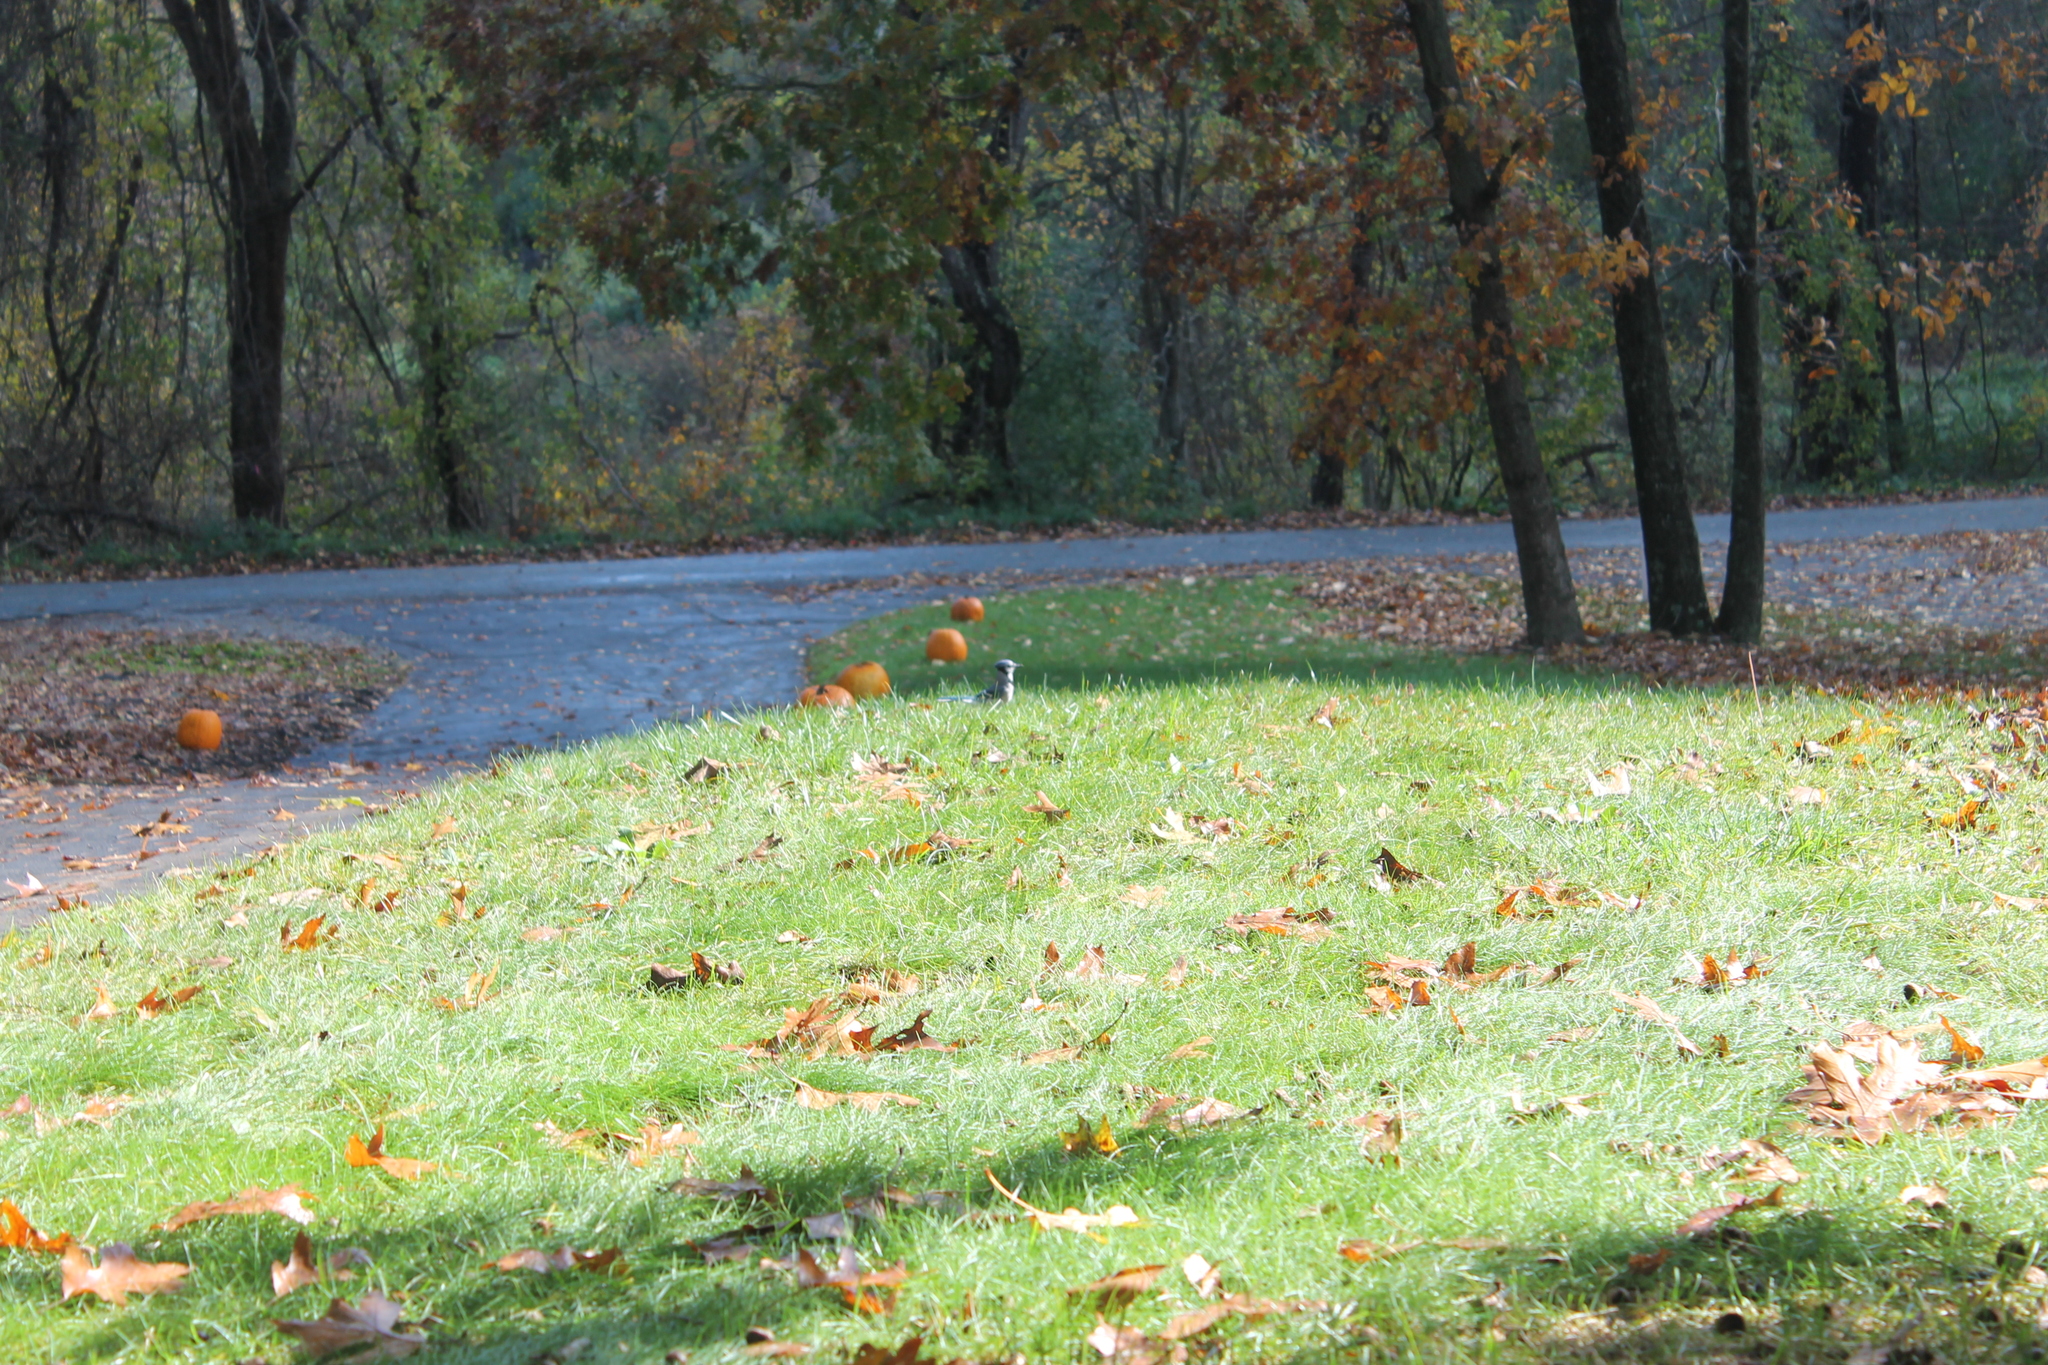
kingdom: Animalia
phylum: Chordata
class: Aves
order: Passeriformes
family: Corvidae
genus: Cyanocitta
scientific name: Cyanocitta cristata
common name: Blue jay
